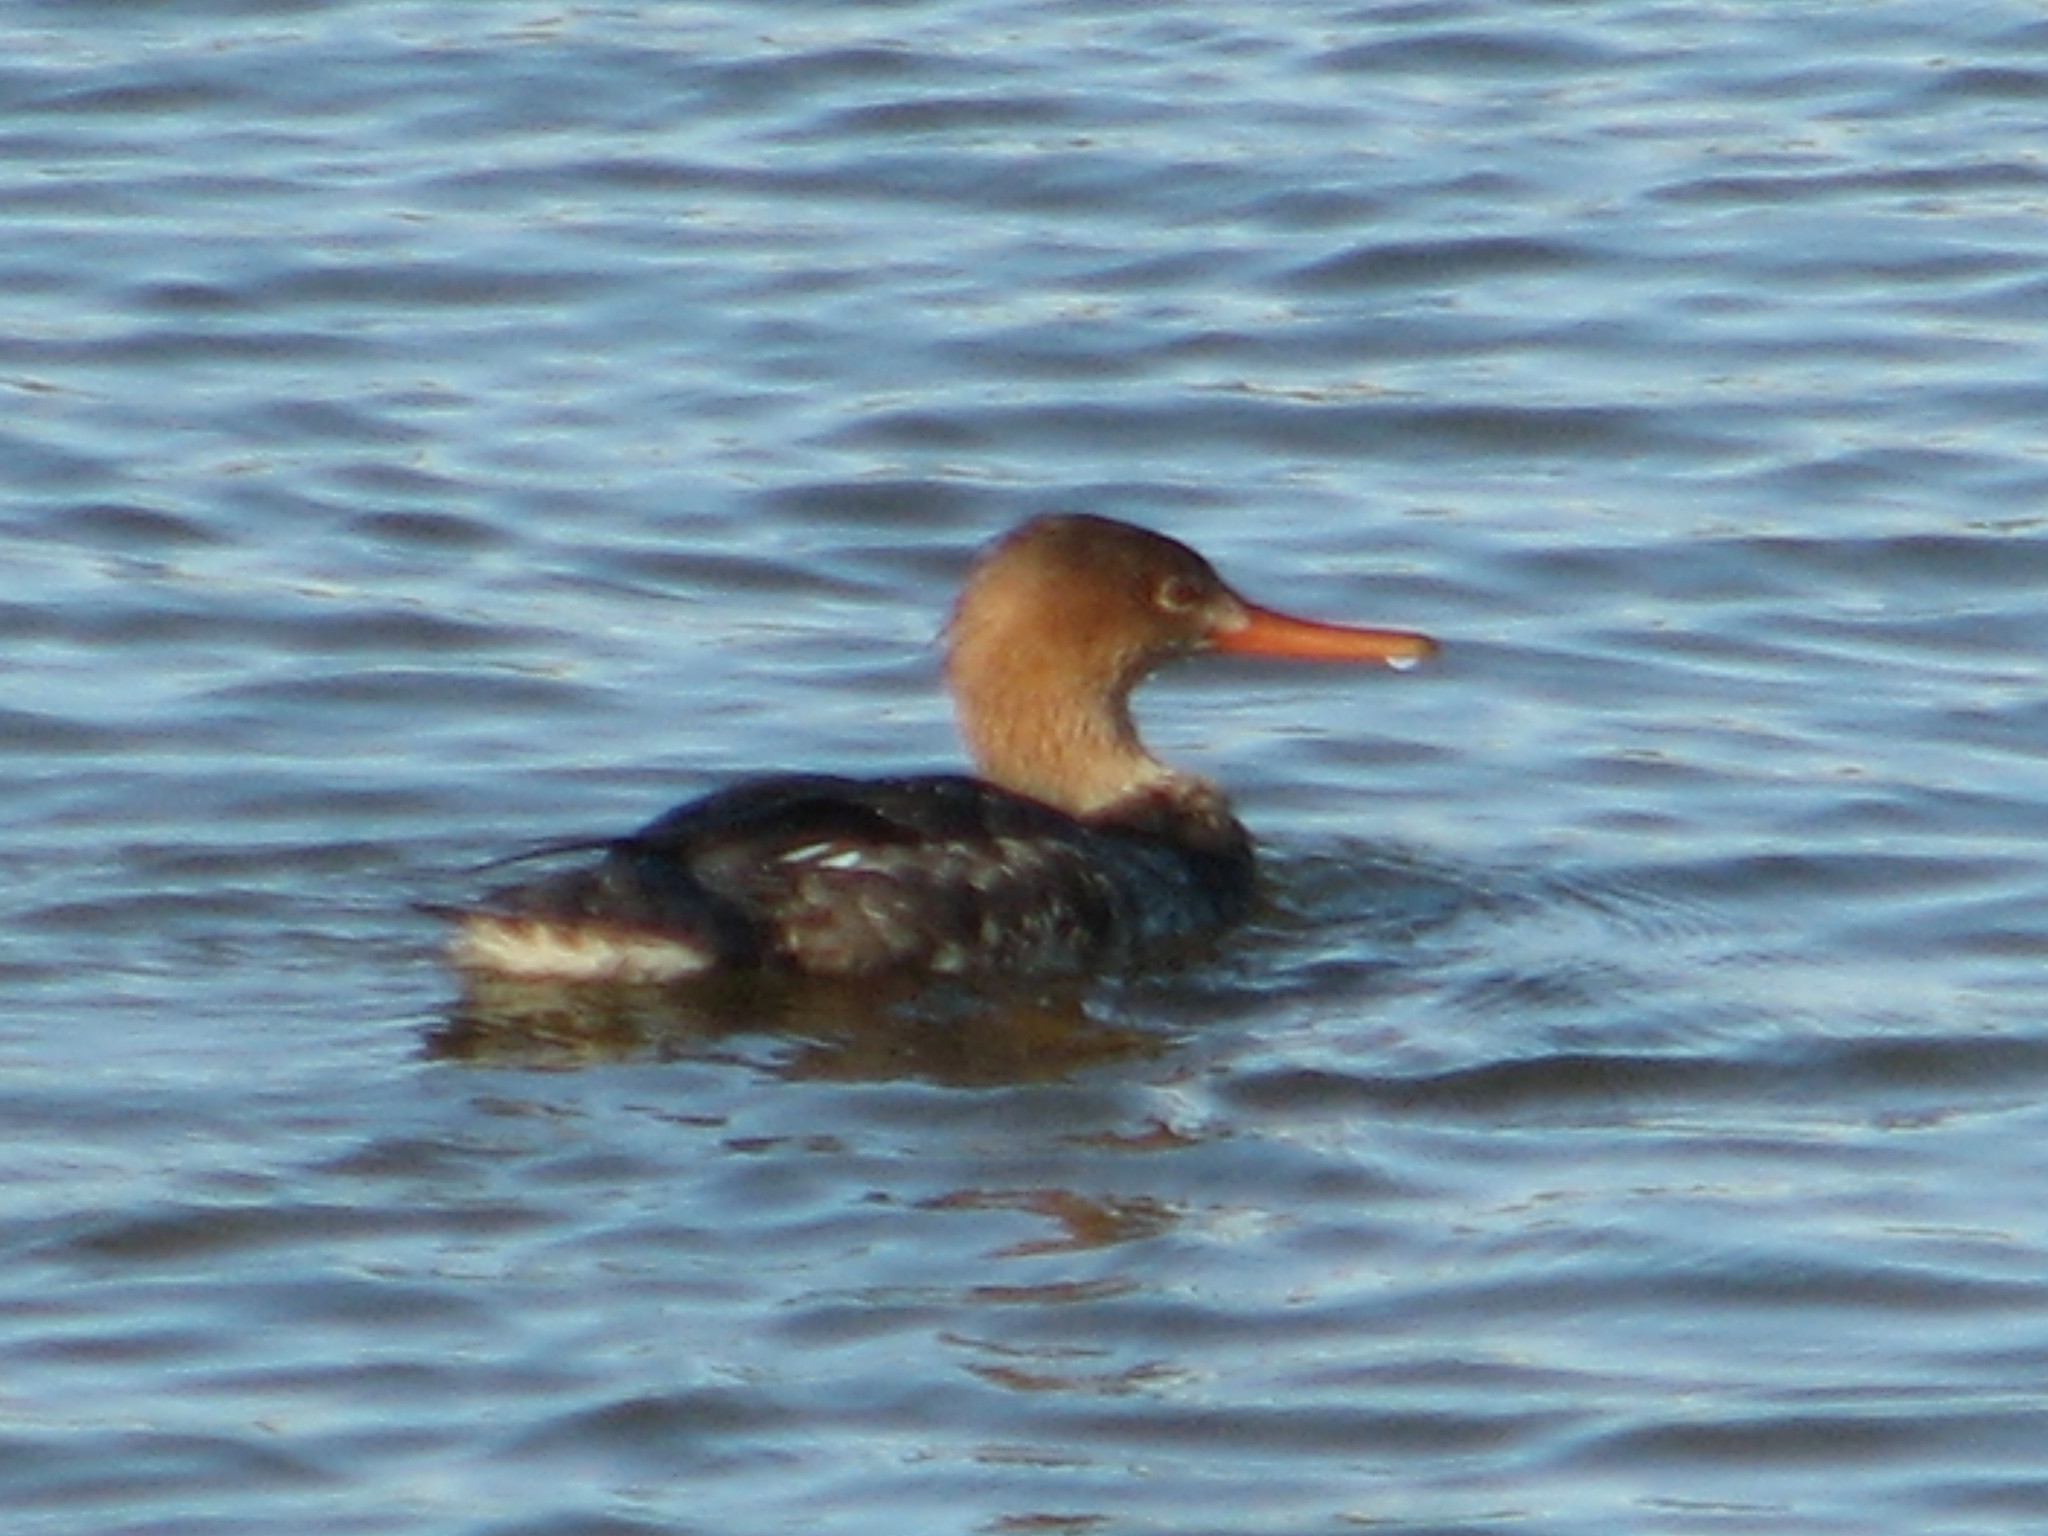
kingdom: Animalia
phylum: Chordata
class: Aves
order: Anseriformes
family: Anatidae
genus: Mergus
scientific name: Mergus serrator
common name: Red-breasted merganser
